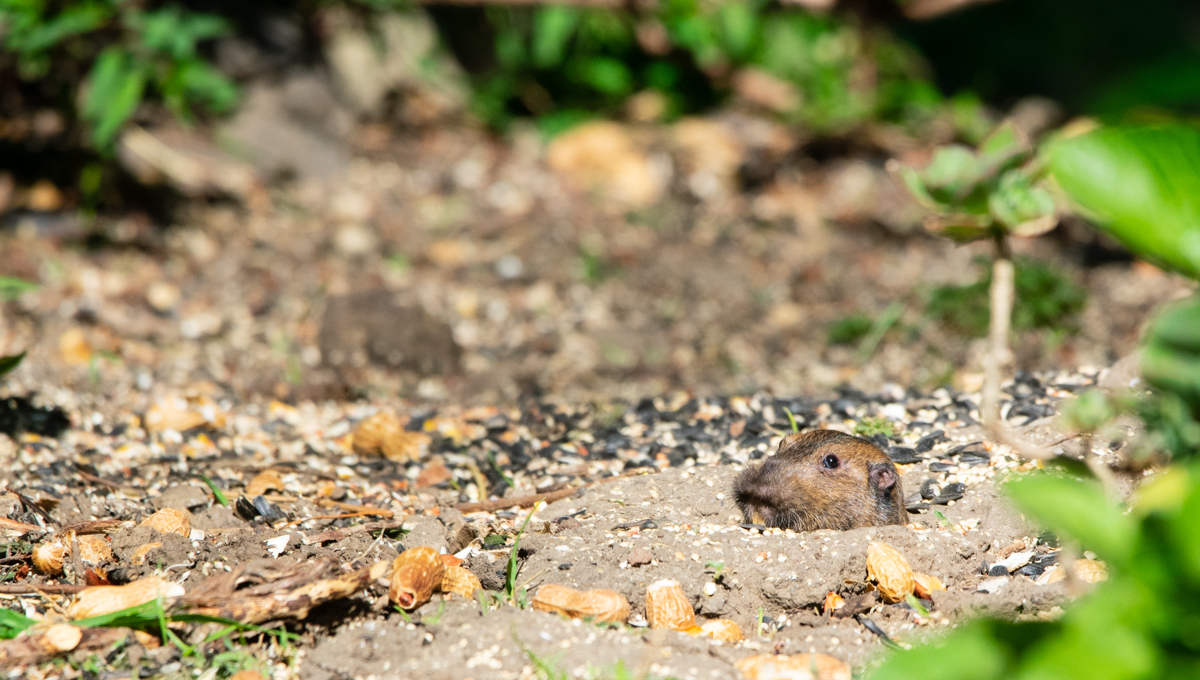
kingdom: Animalia
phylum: Chordata
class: Mammalia
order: Rodentia
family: Geomyidae
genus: Thomomys
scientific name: Thomomys bottae
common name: Botta's pocket gopher
